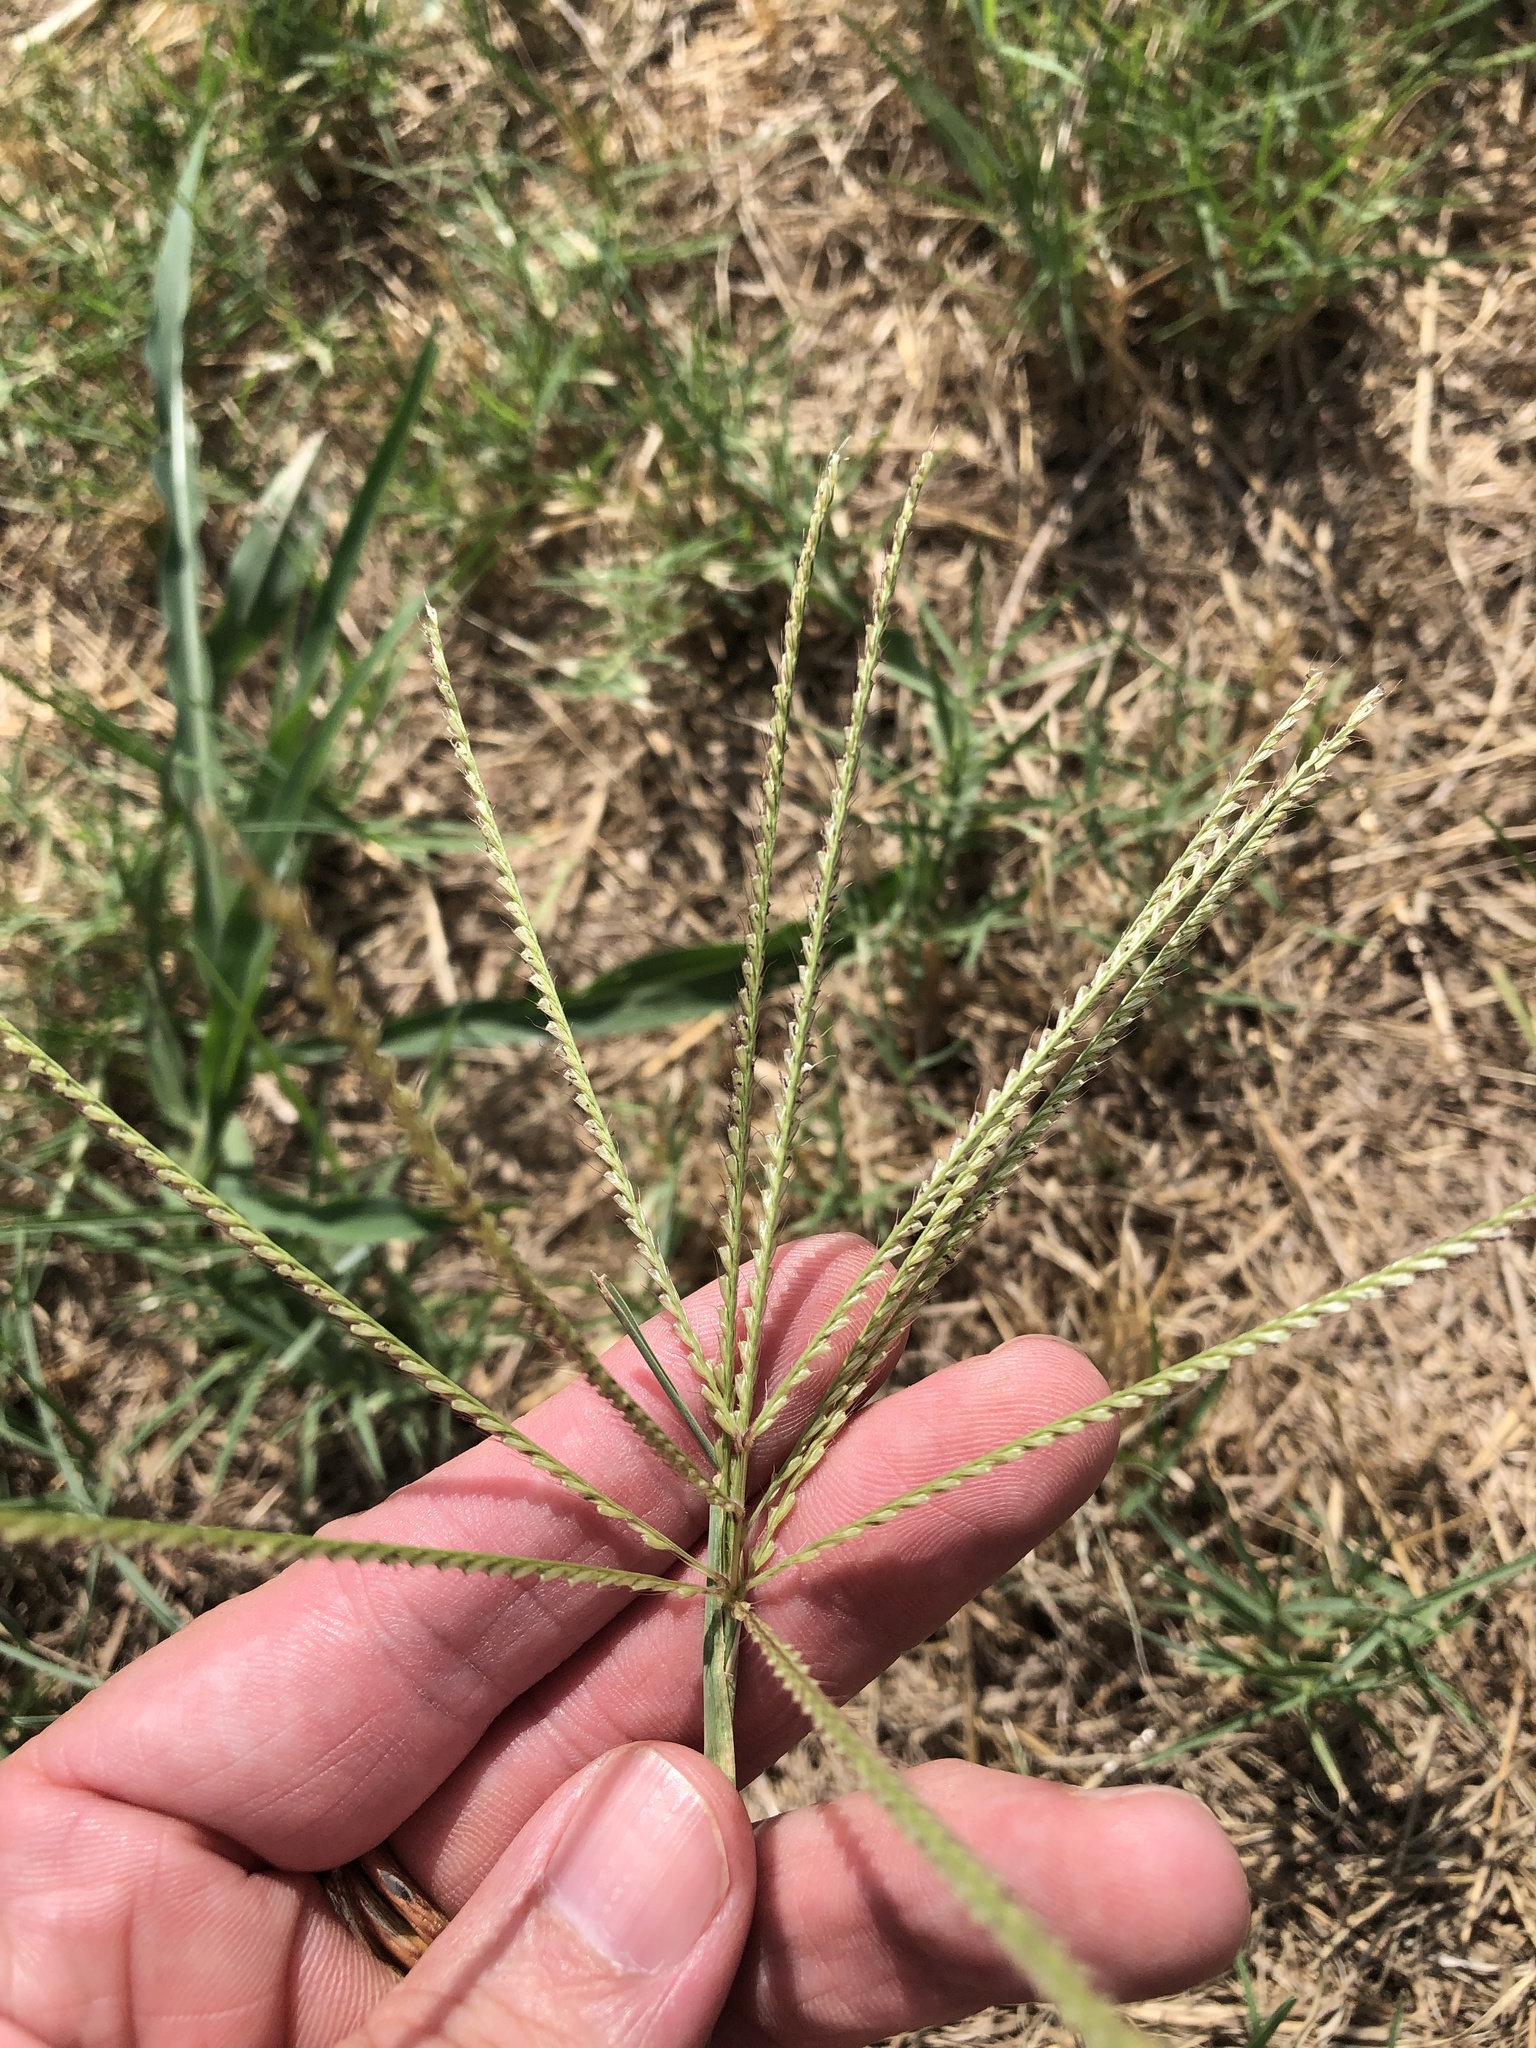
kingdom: Plantae
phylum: Tracheophyta
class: Liliopsida
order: Poales
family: Poaceae
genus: Chloris
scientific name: Chloris verticillata
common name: Tumble windmill grass
